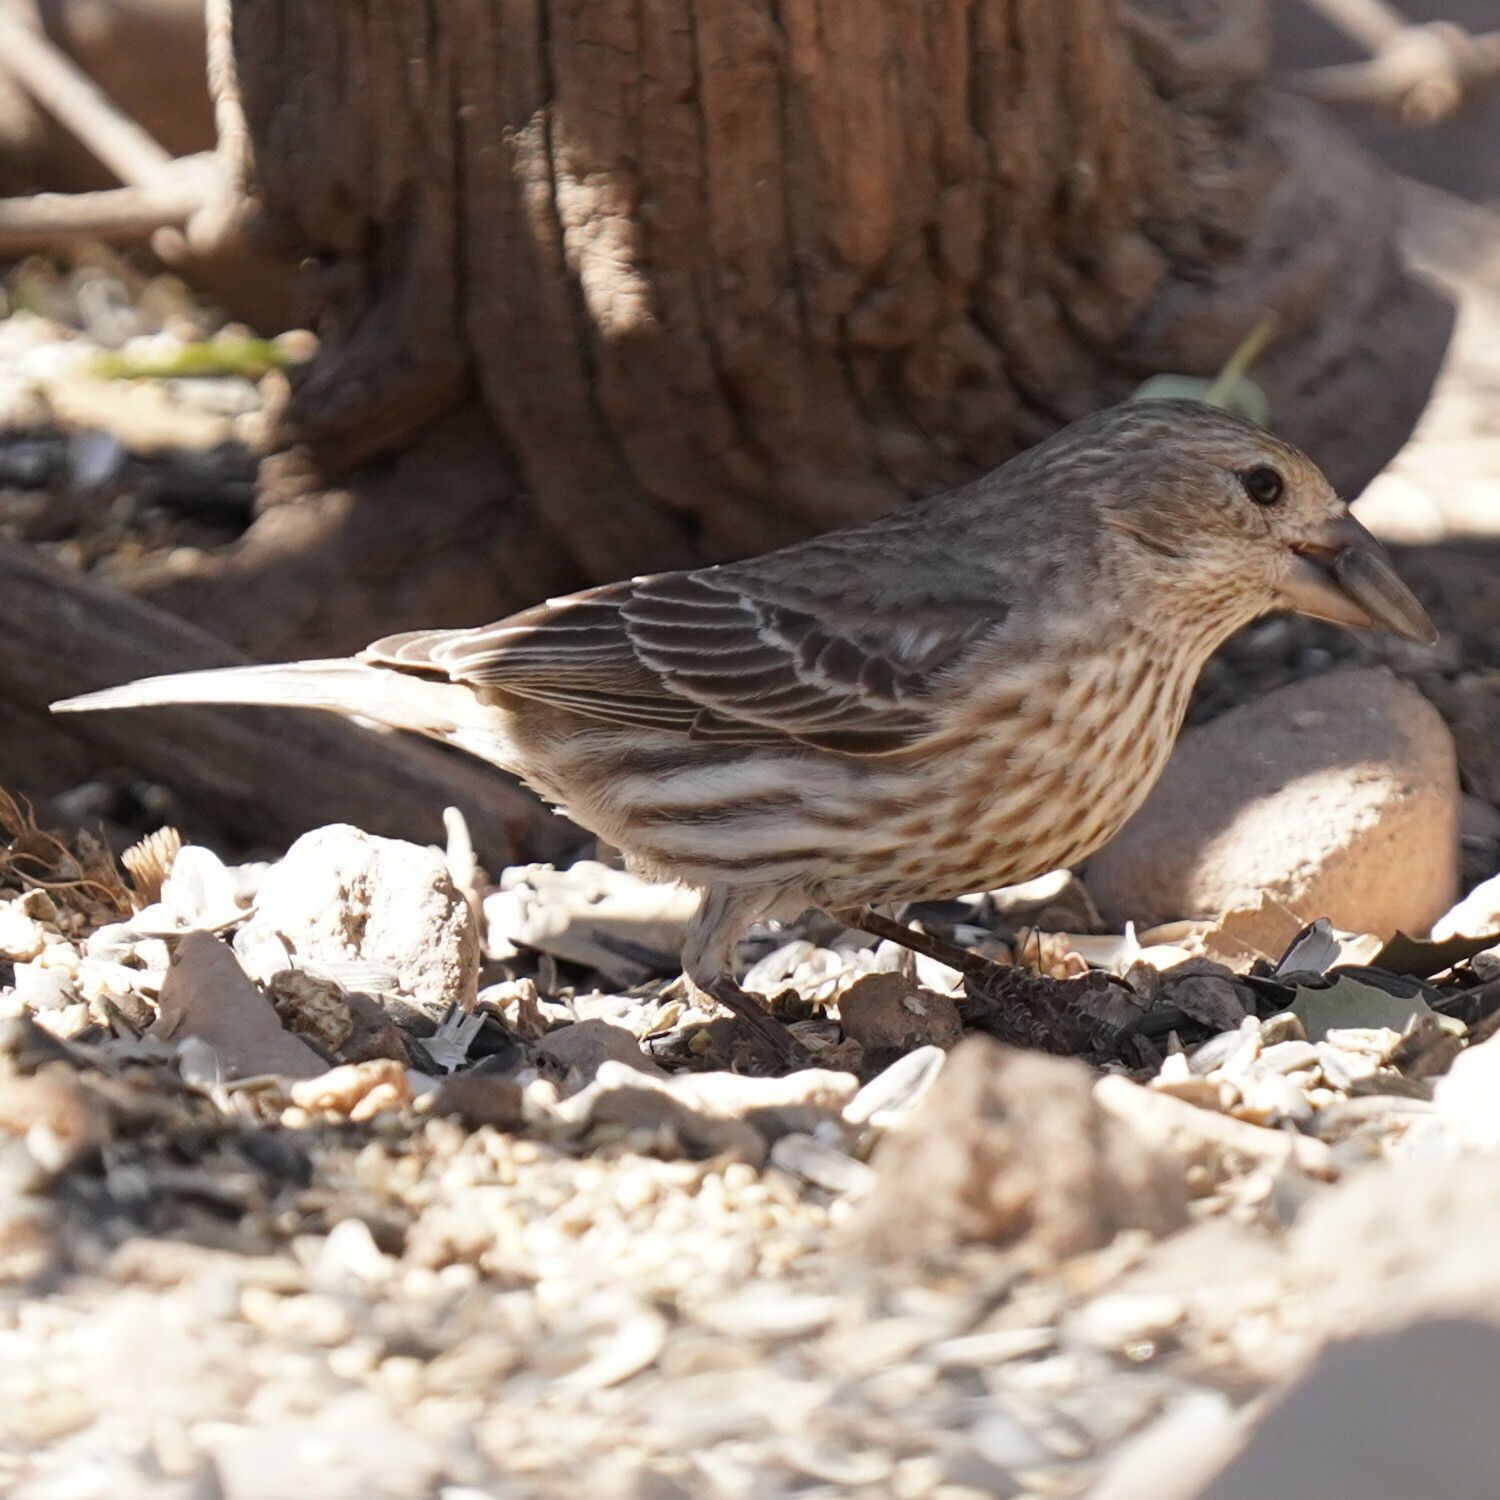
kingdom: Animalia
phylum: Chordata
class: Aves
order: Passeriformes
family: Fringillidae
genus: Haemorhous
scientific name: Haemorhous mexicanus
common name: House finch
